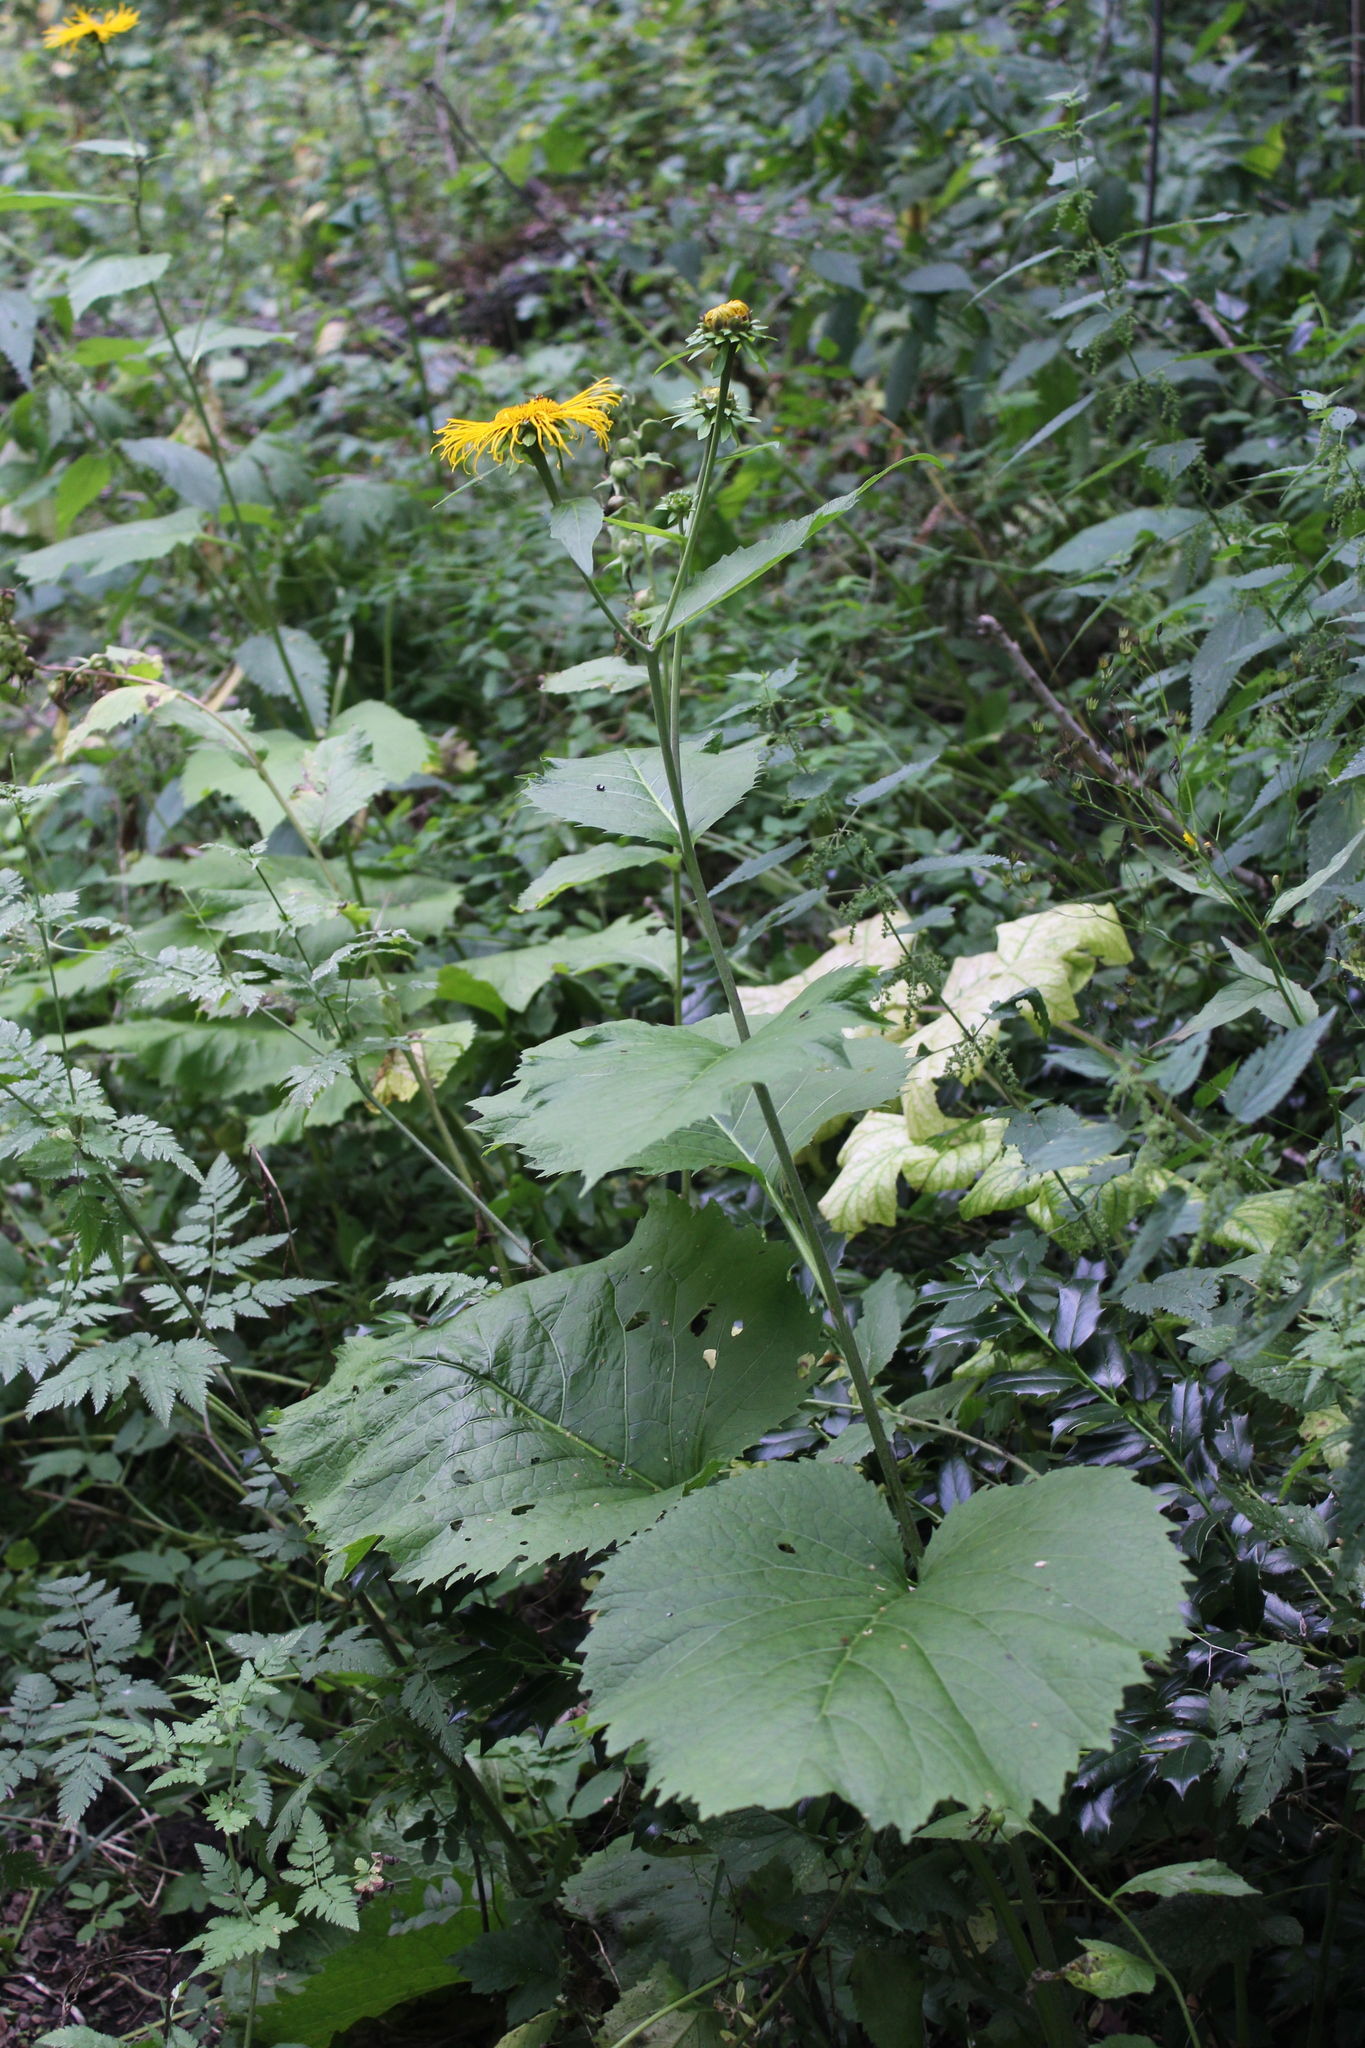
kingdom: Plantae
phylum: Tracheophyta
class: Magnoliopsida
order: Asterales
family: Asteraceae
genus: Telekia
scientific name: Telekia speciosa
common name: Yellow oxeye
